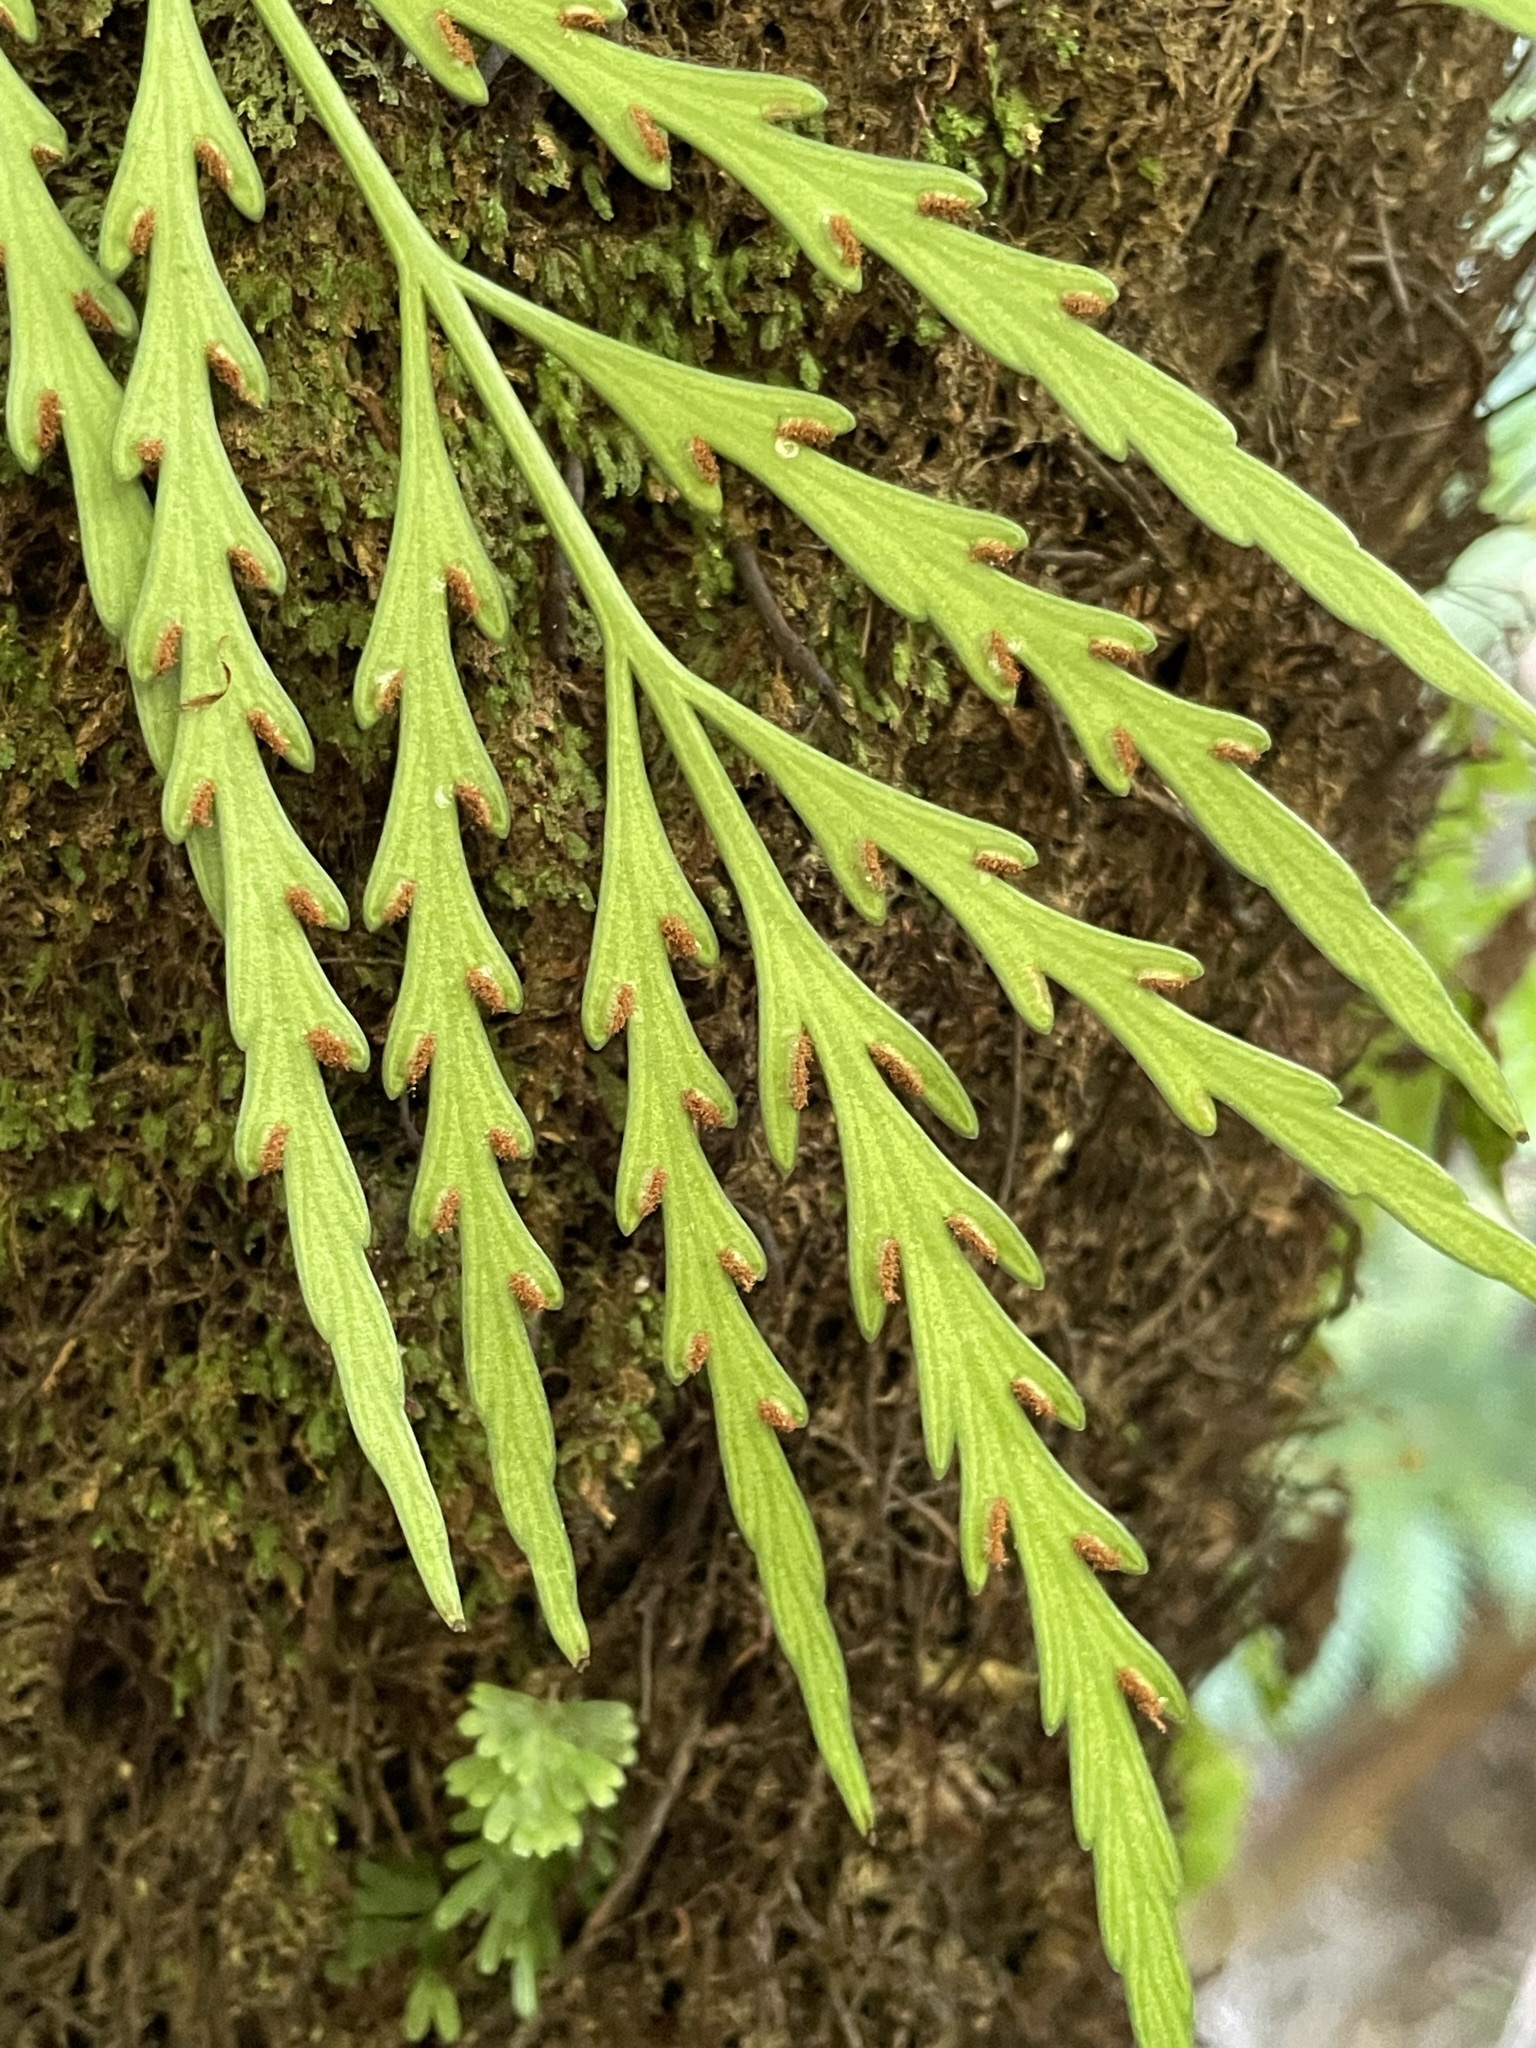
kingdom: Plantae
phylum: Tracheophyta
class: Polypodiopsida
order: Polypodiales
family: Aspleniaceae
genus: Asplenium
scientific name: Asplenium flaccidum
